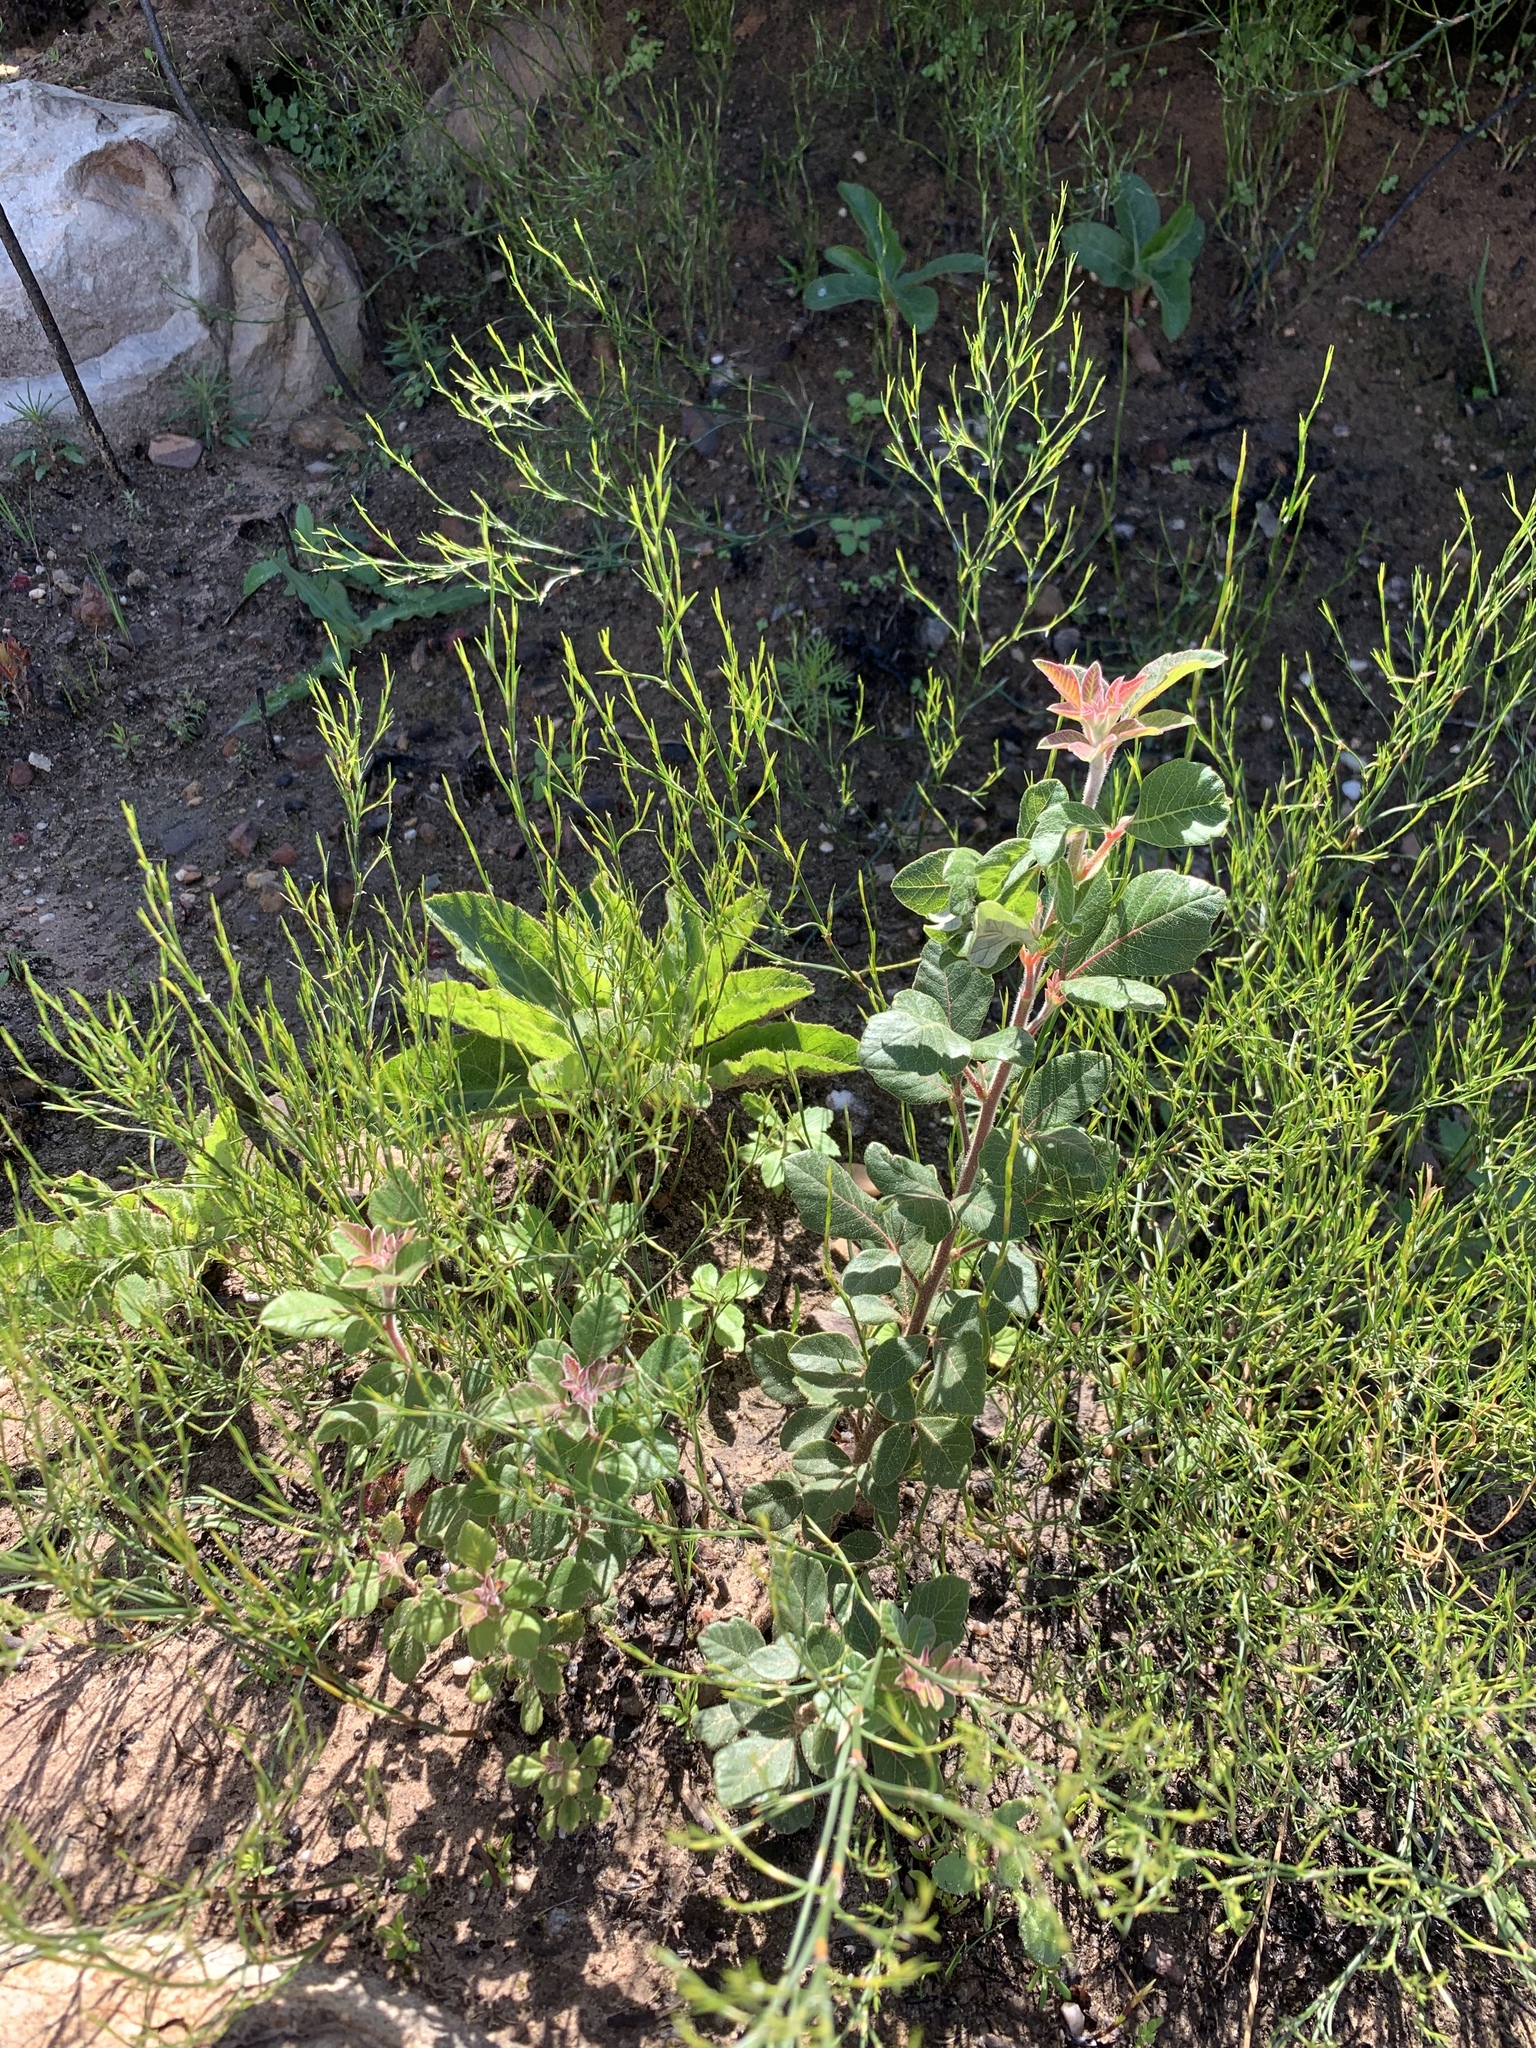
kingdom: Plantae
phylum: Tracheophyta
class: Magnoliopsida
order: Sapindales
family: Anacardiaceae
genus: Searsia
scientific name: Searsia tomentosa
